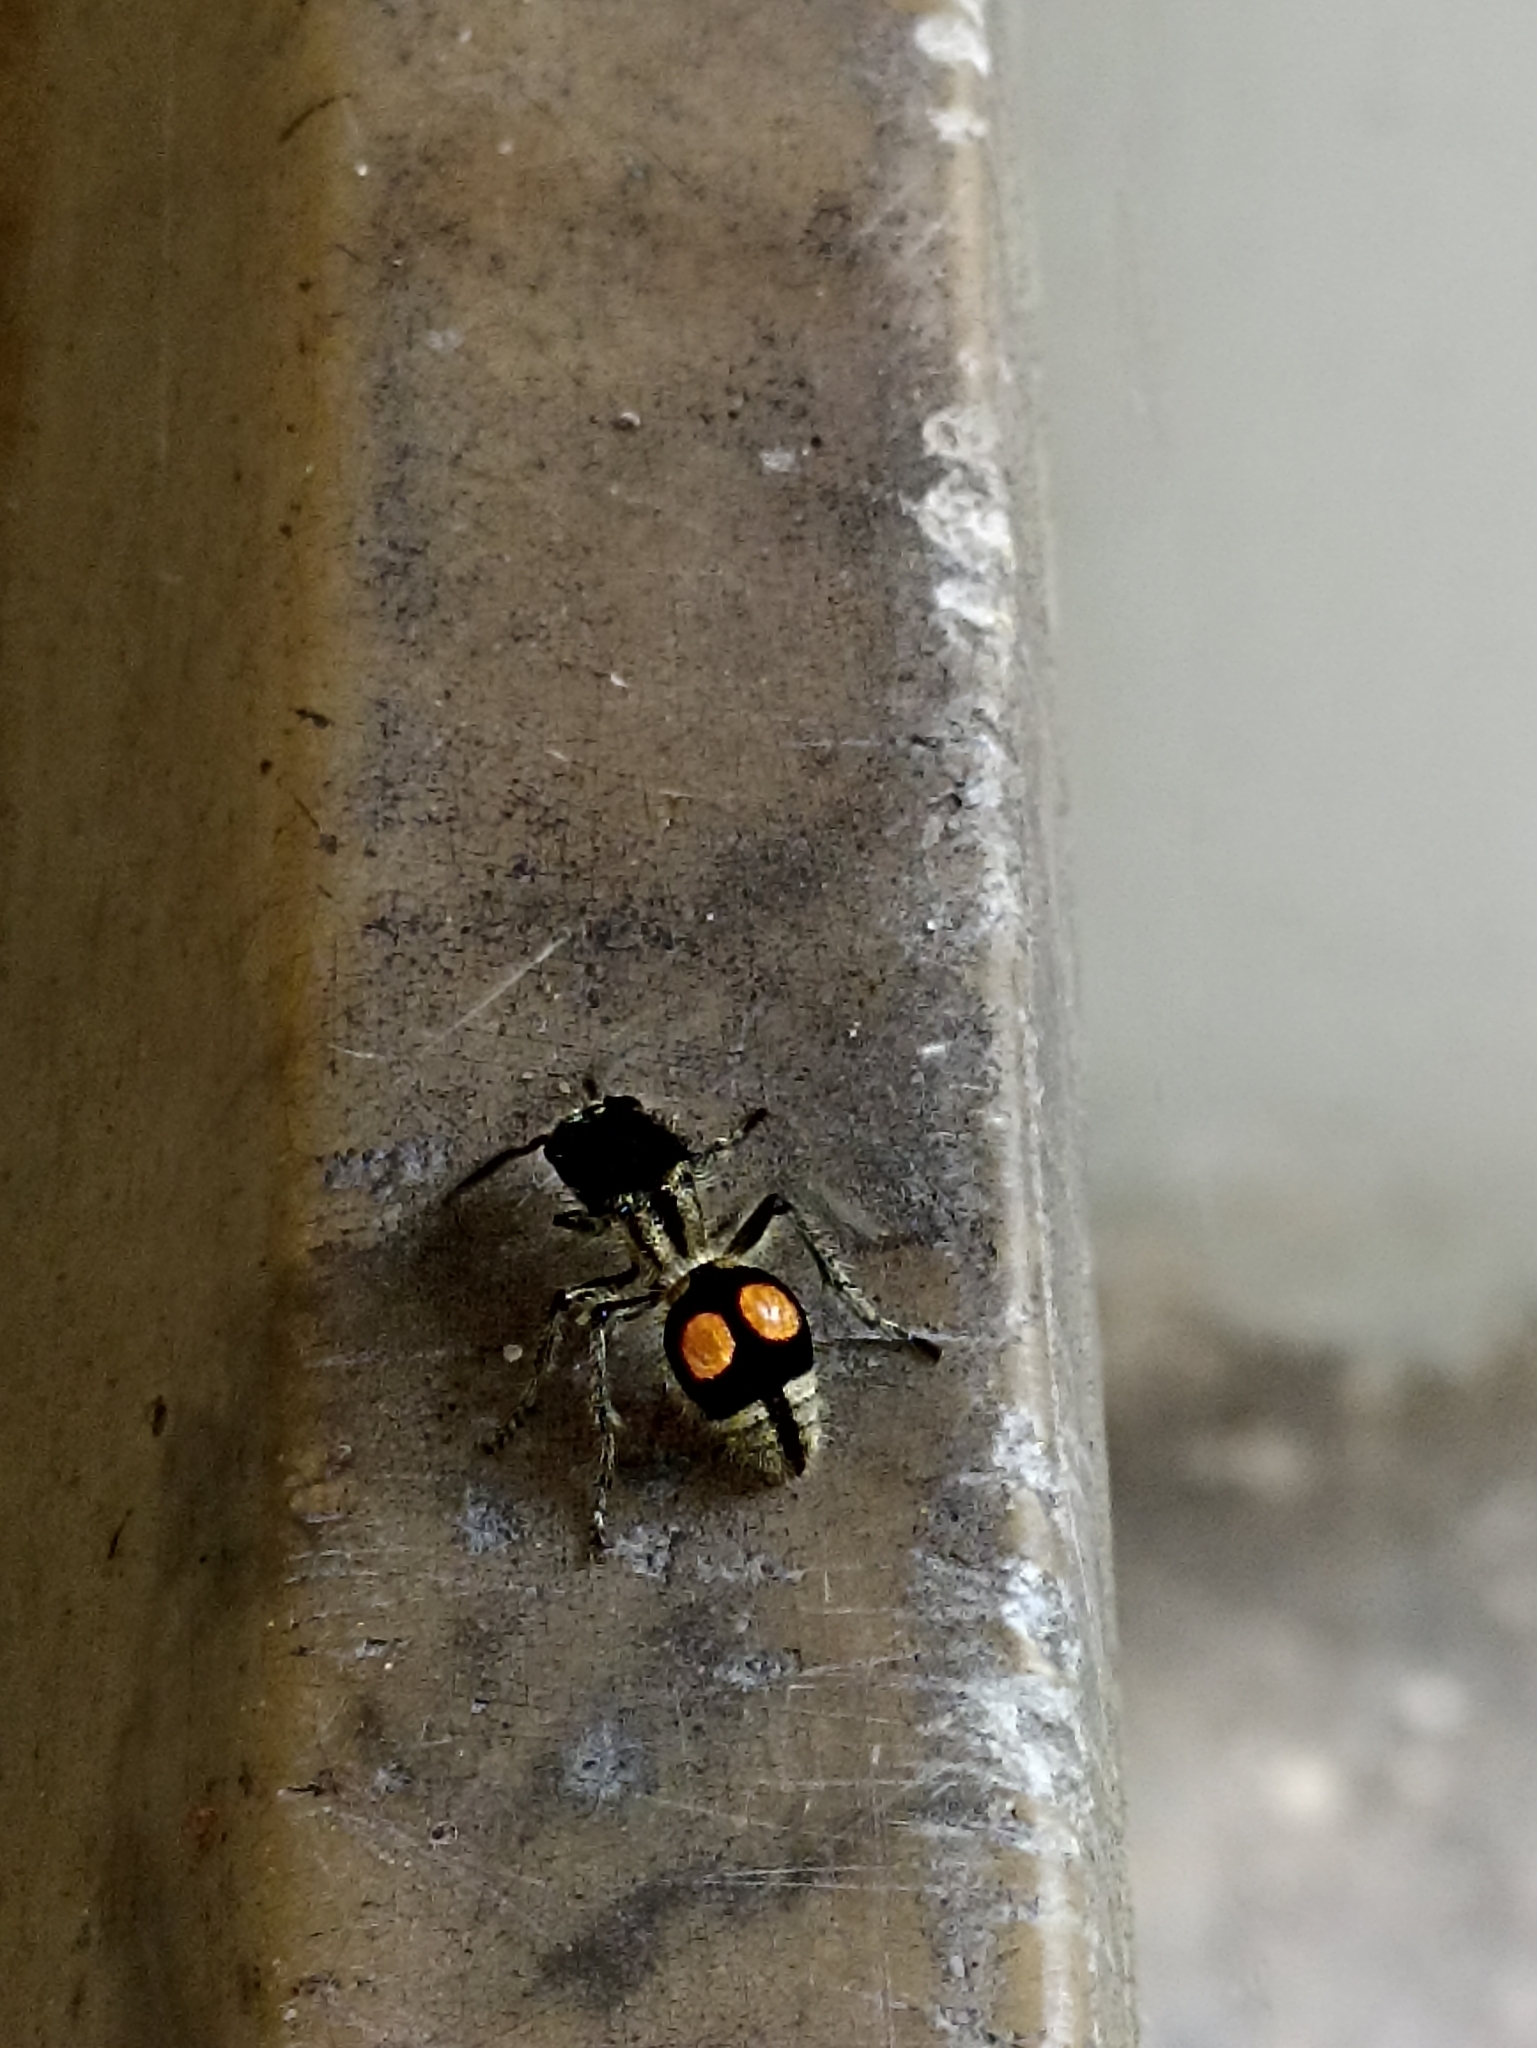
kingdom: Animalia
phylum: Arthropoda
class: Insecta
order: Hymenoptera
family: Mutillidae
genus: Hoplomutilla
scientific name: Hoplomutilla
